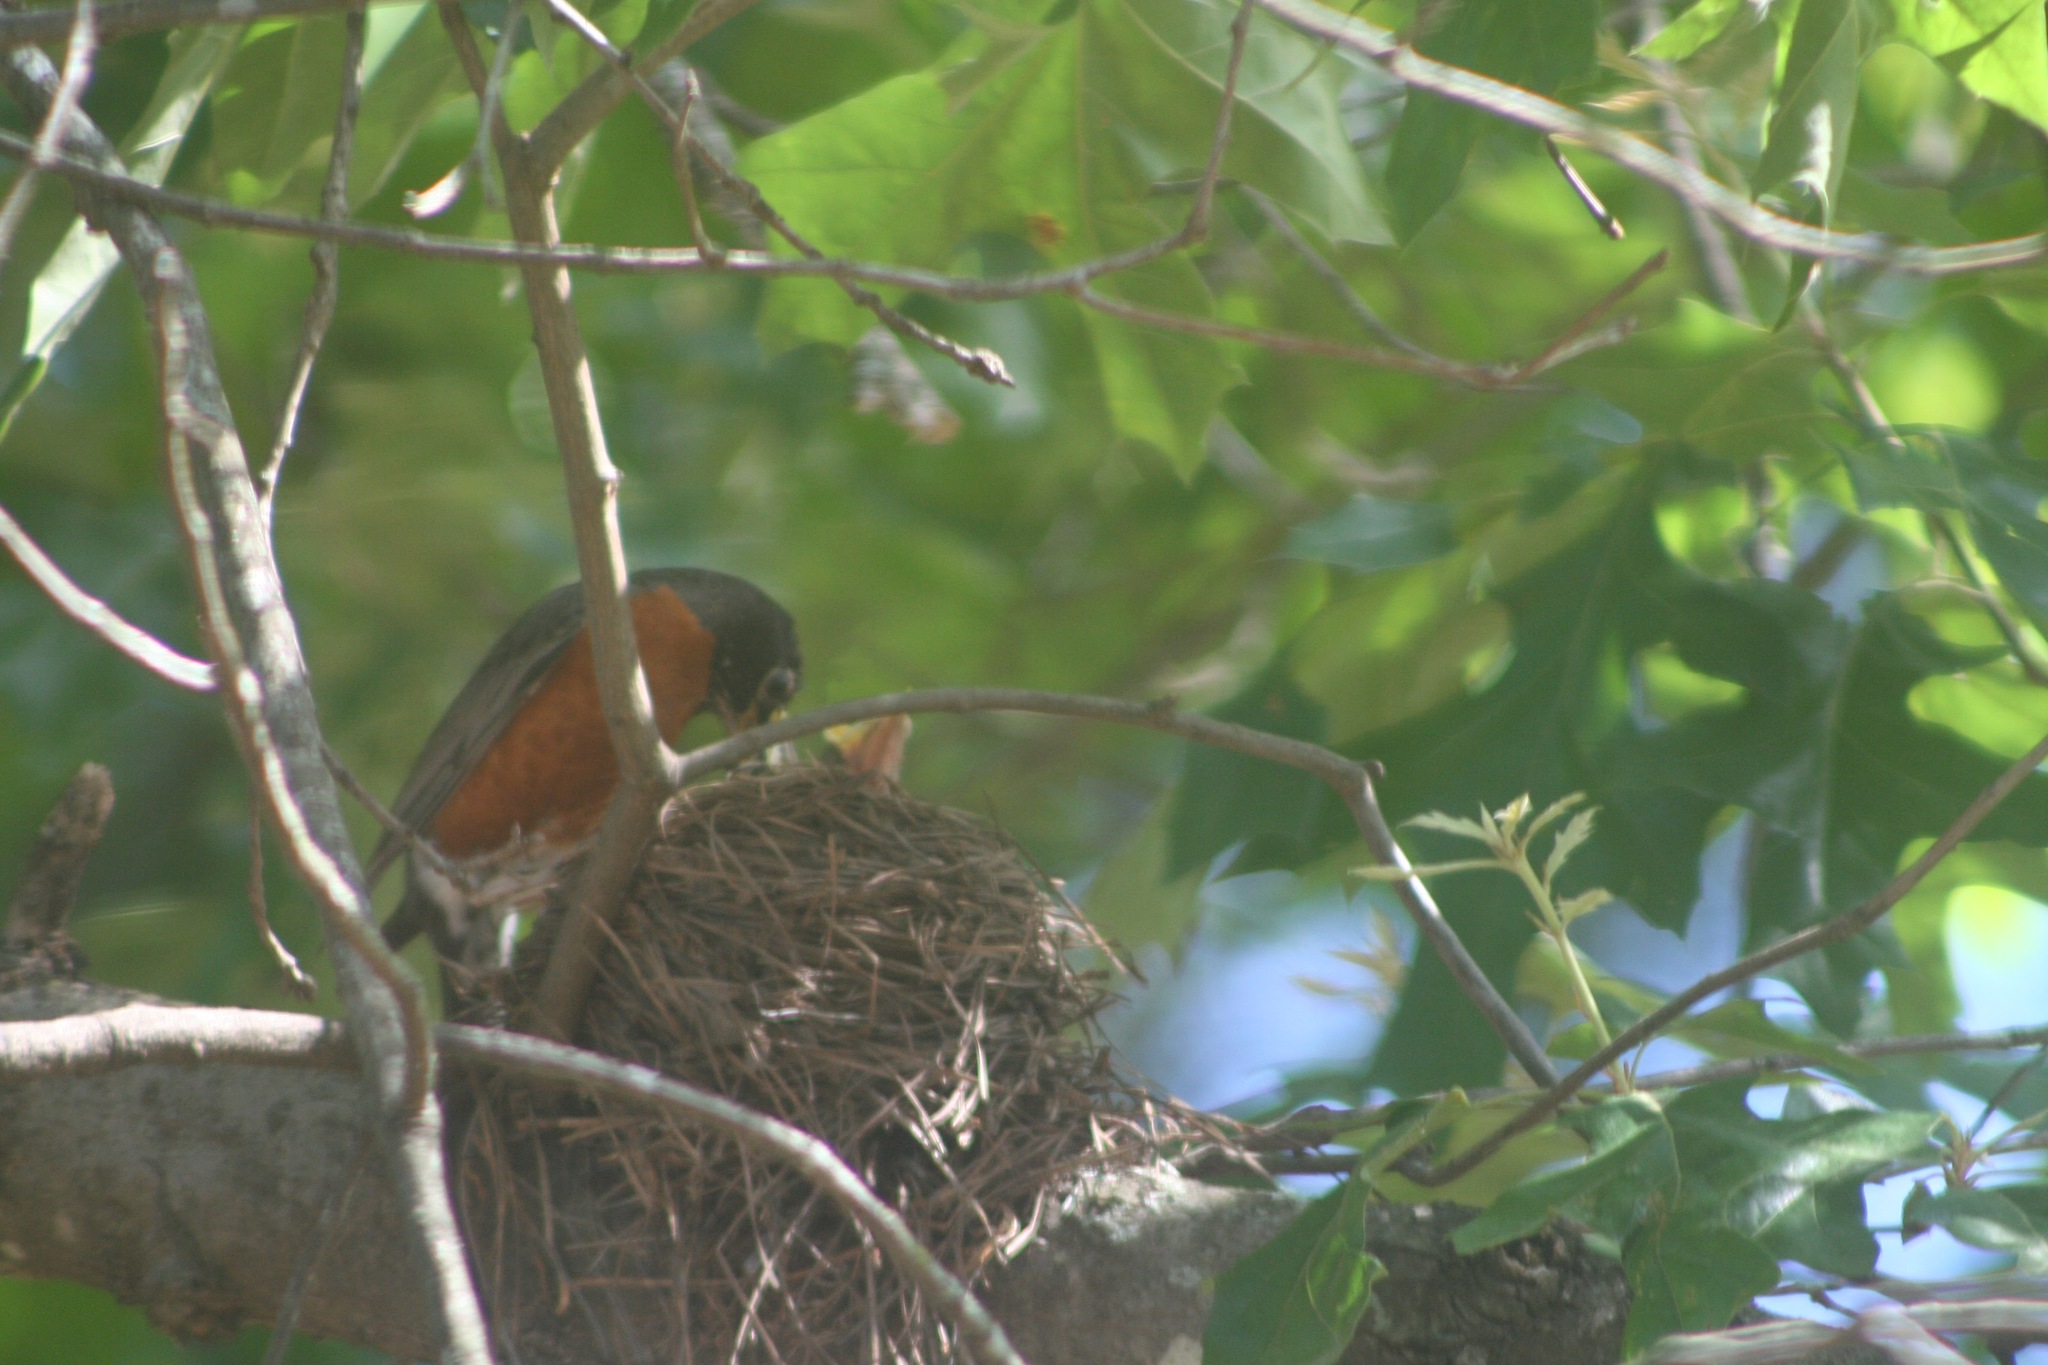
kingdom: Animalia
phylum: Chordata
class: Aves
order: Passeriformes
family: Turdidae
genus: Turdus
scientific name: Turdus migratorius
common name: American robin
